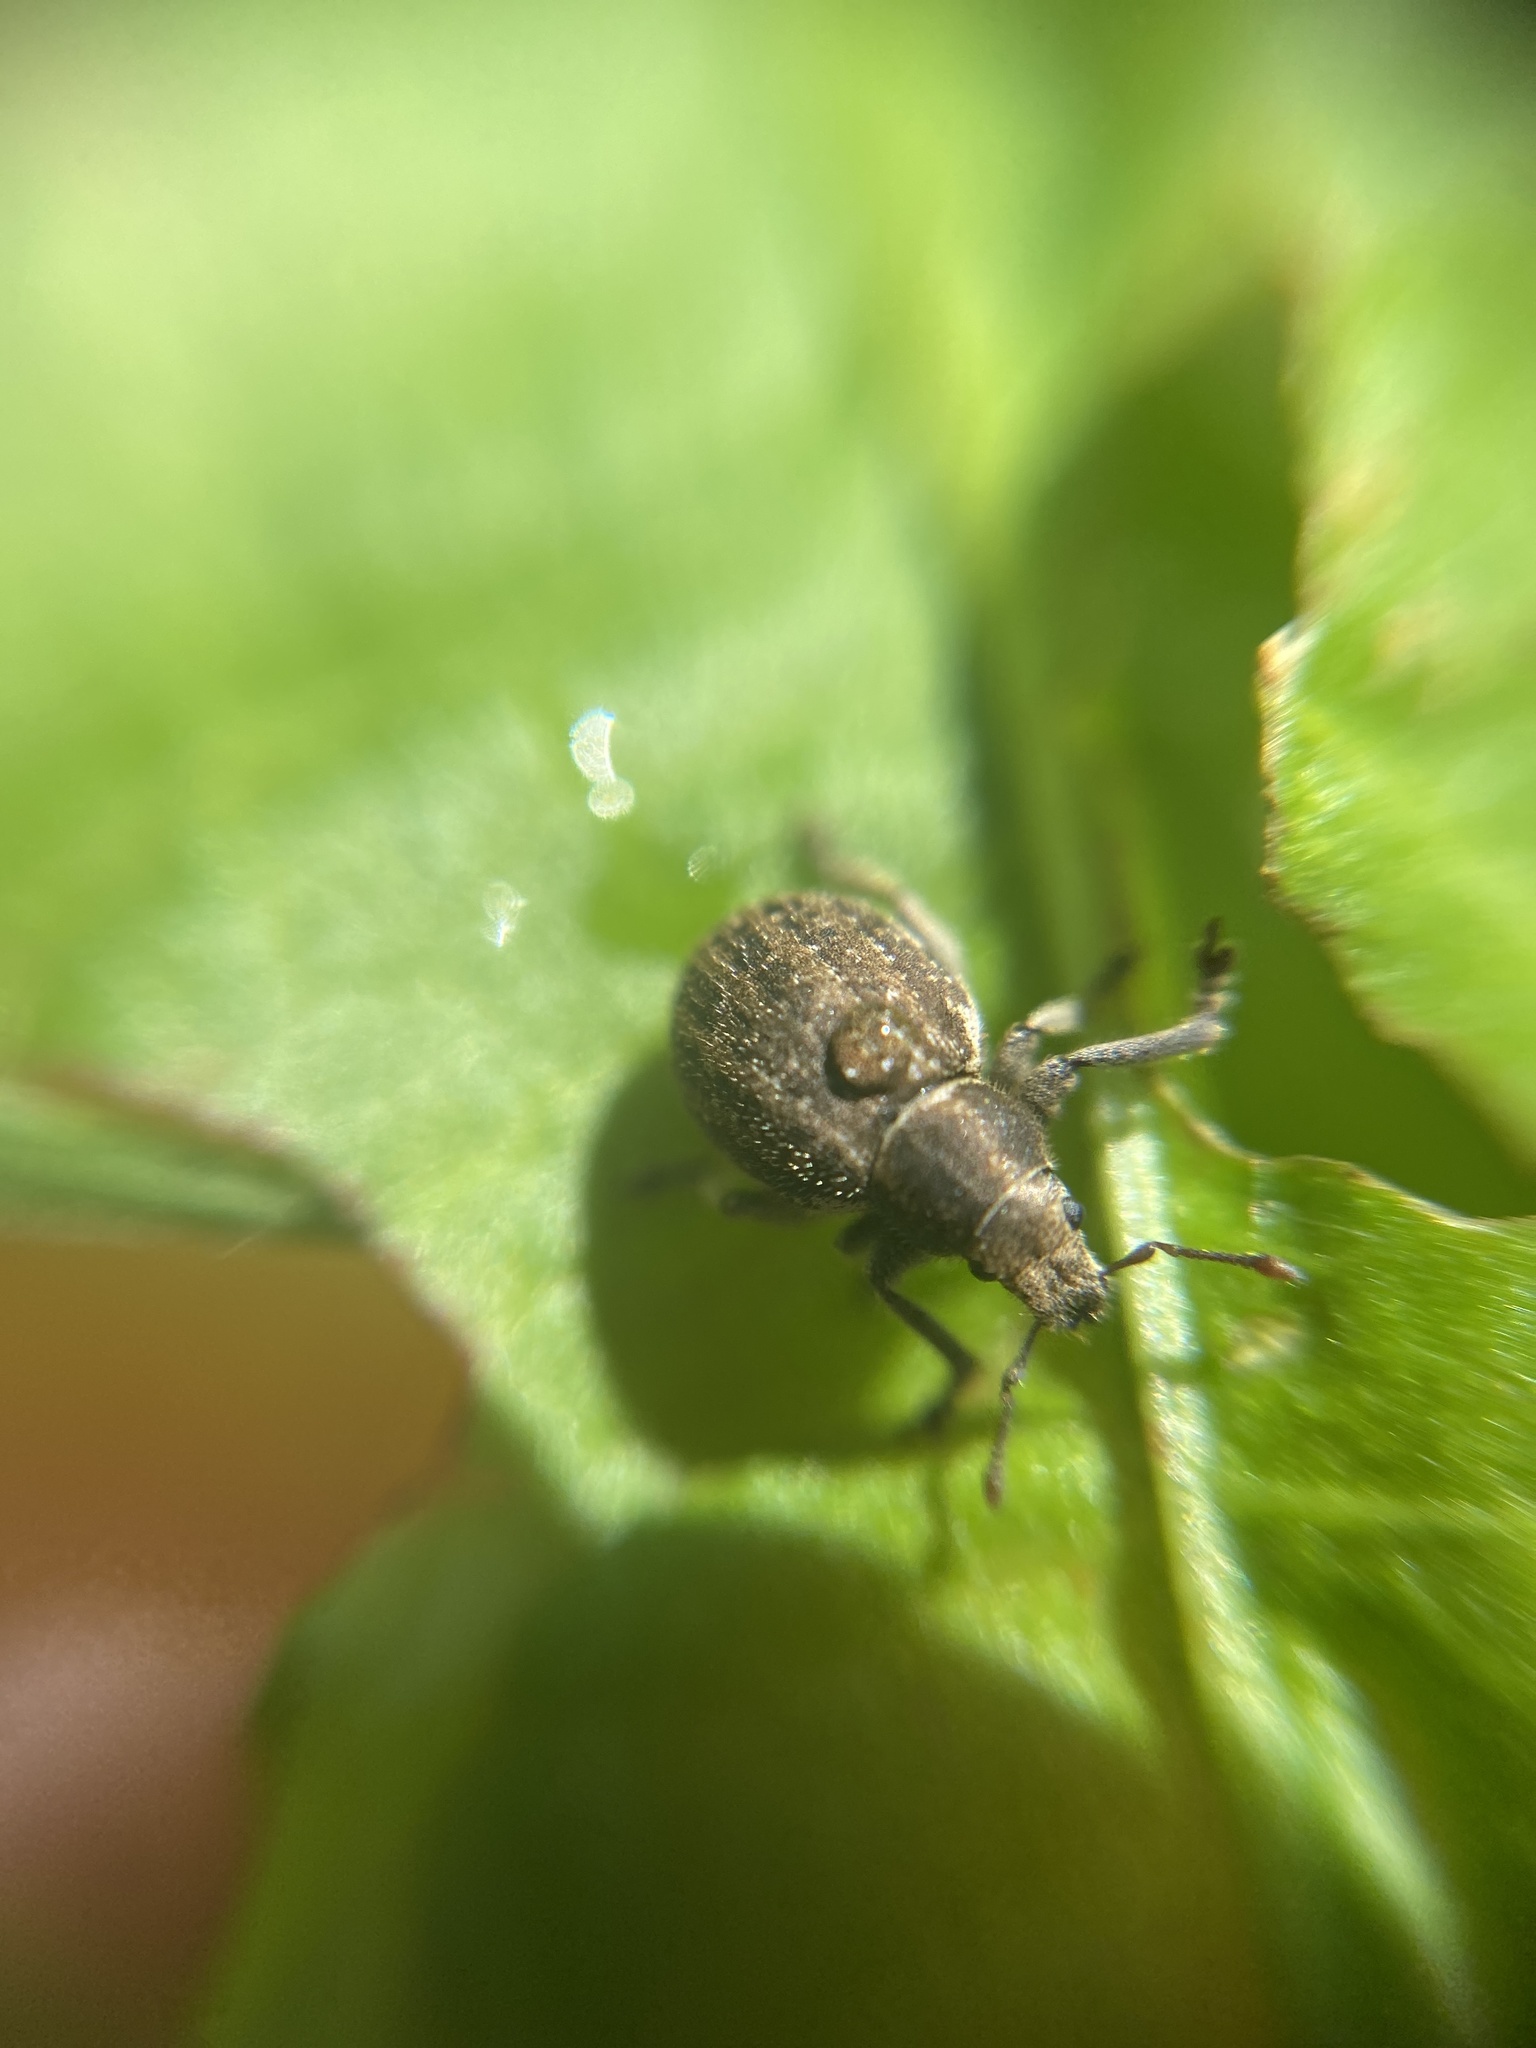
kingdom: Animalia
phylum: Arthropoda
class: Insecta
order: Coleoptera
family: Curculionidae
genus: Philopedon
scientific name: Philopedon plagiatum
